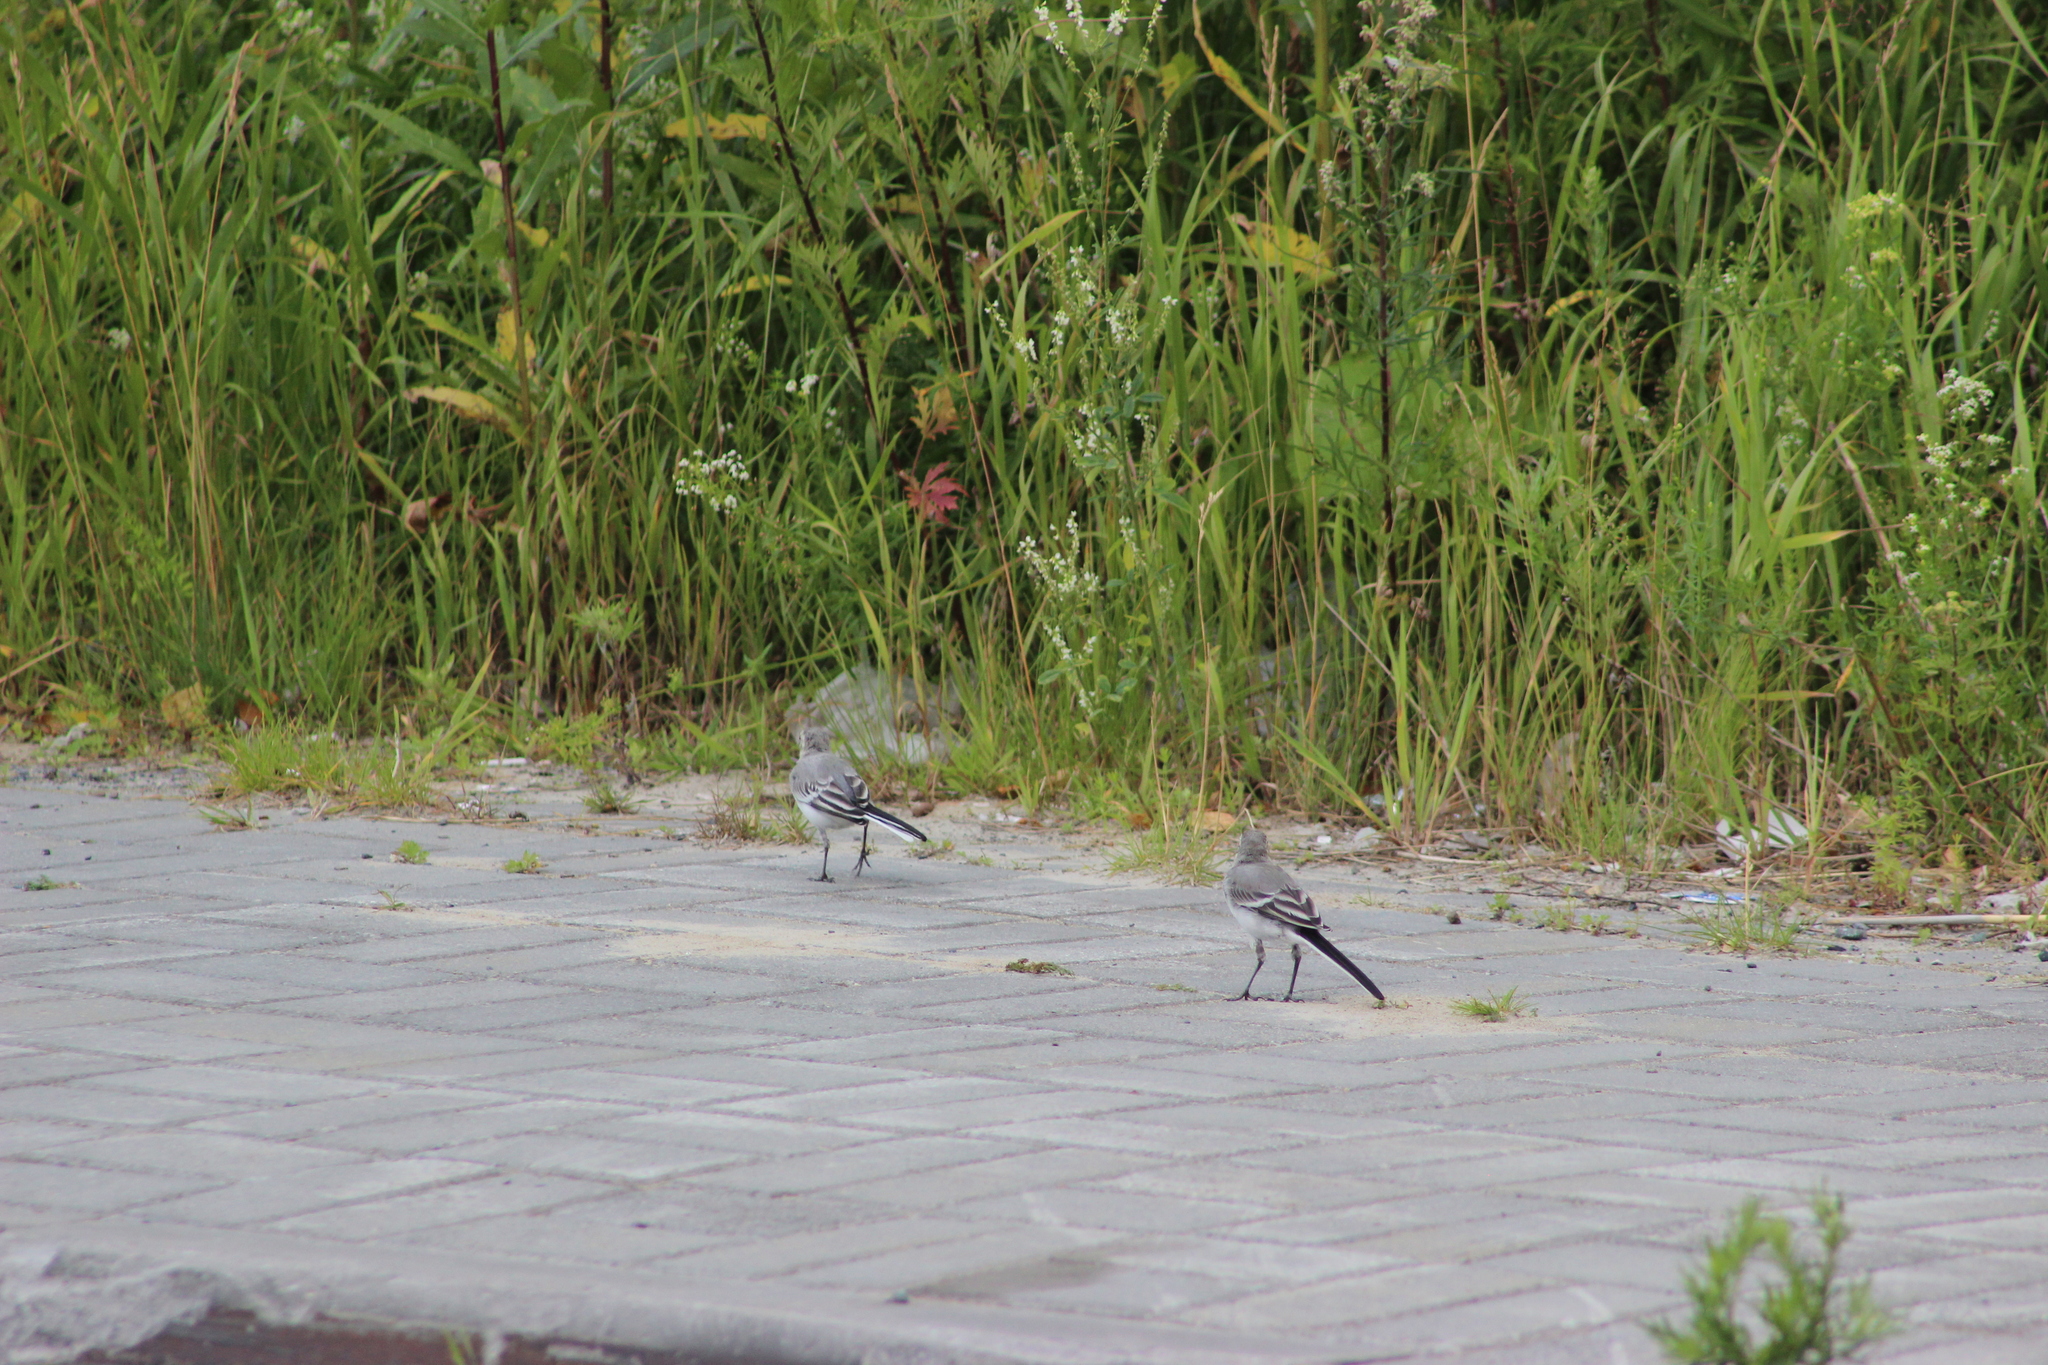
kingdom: Animalia
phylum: Chordata
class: Aves
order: Passeriformes
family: Motacillidae
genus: Motacilla
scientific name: Motacilla alba
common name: White wagtail
